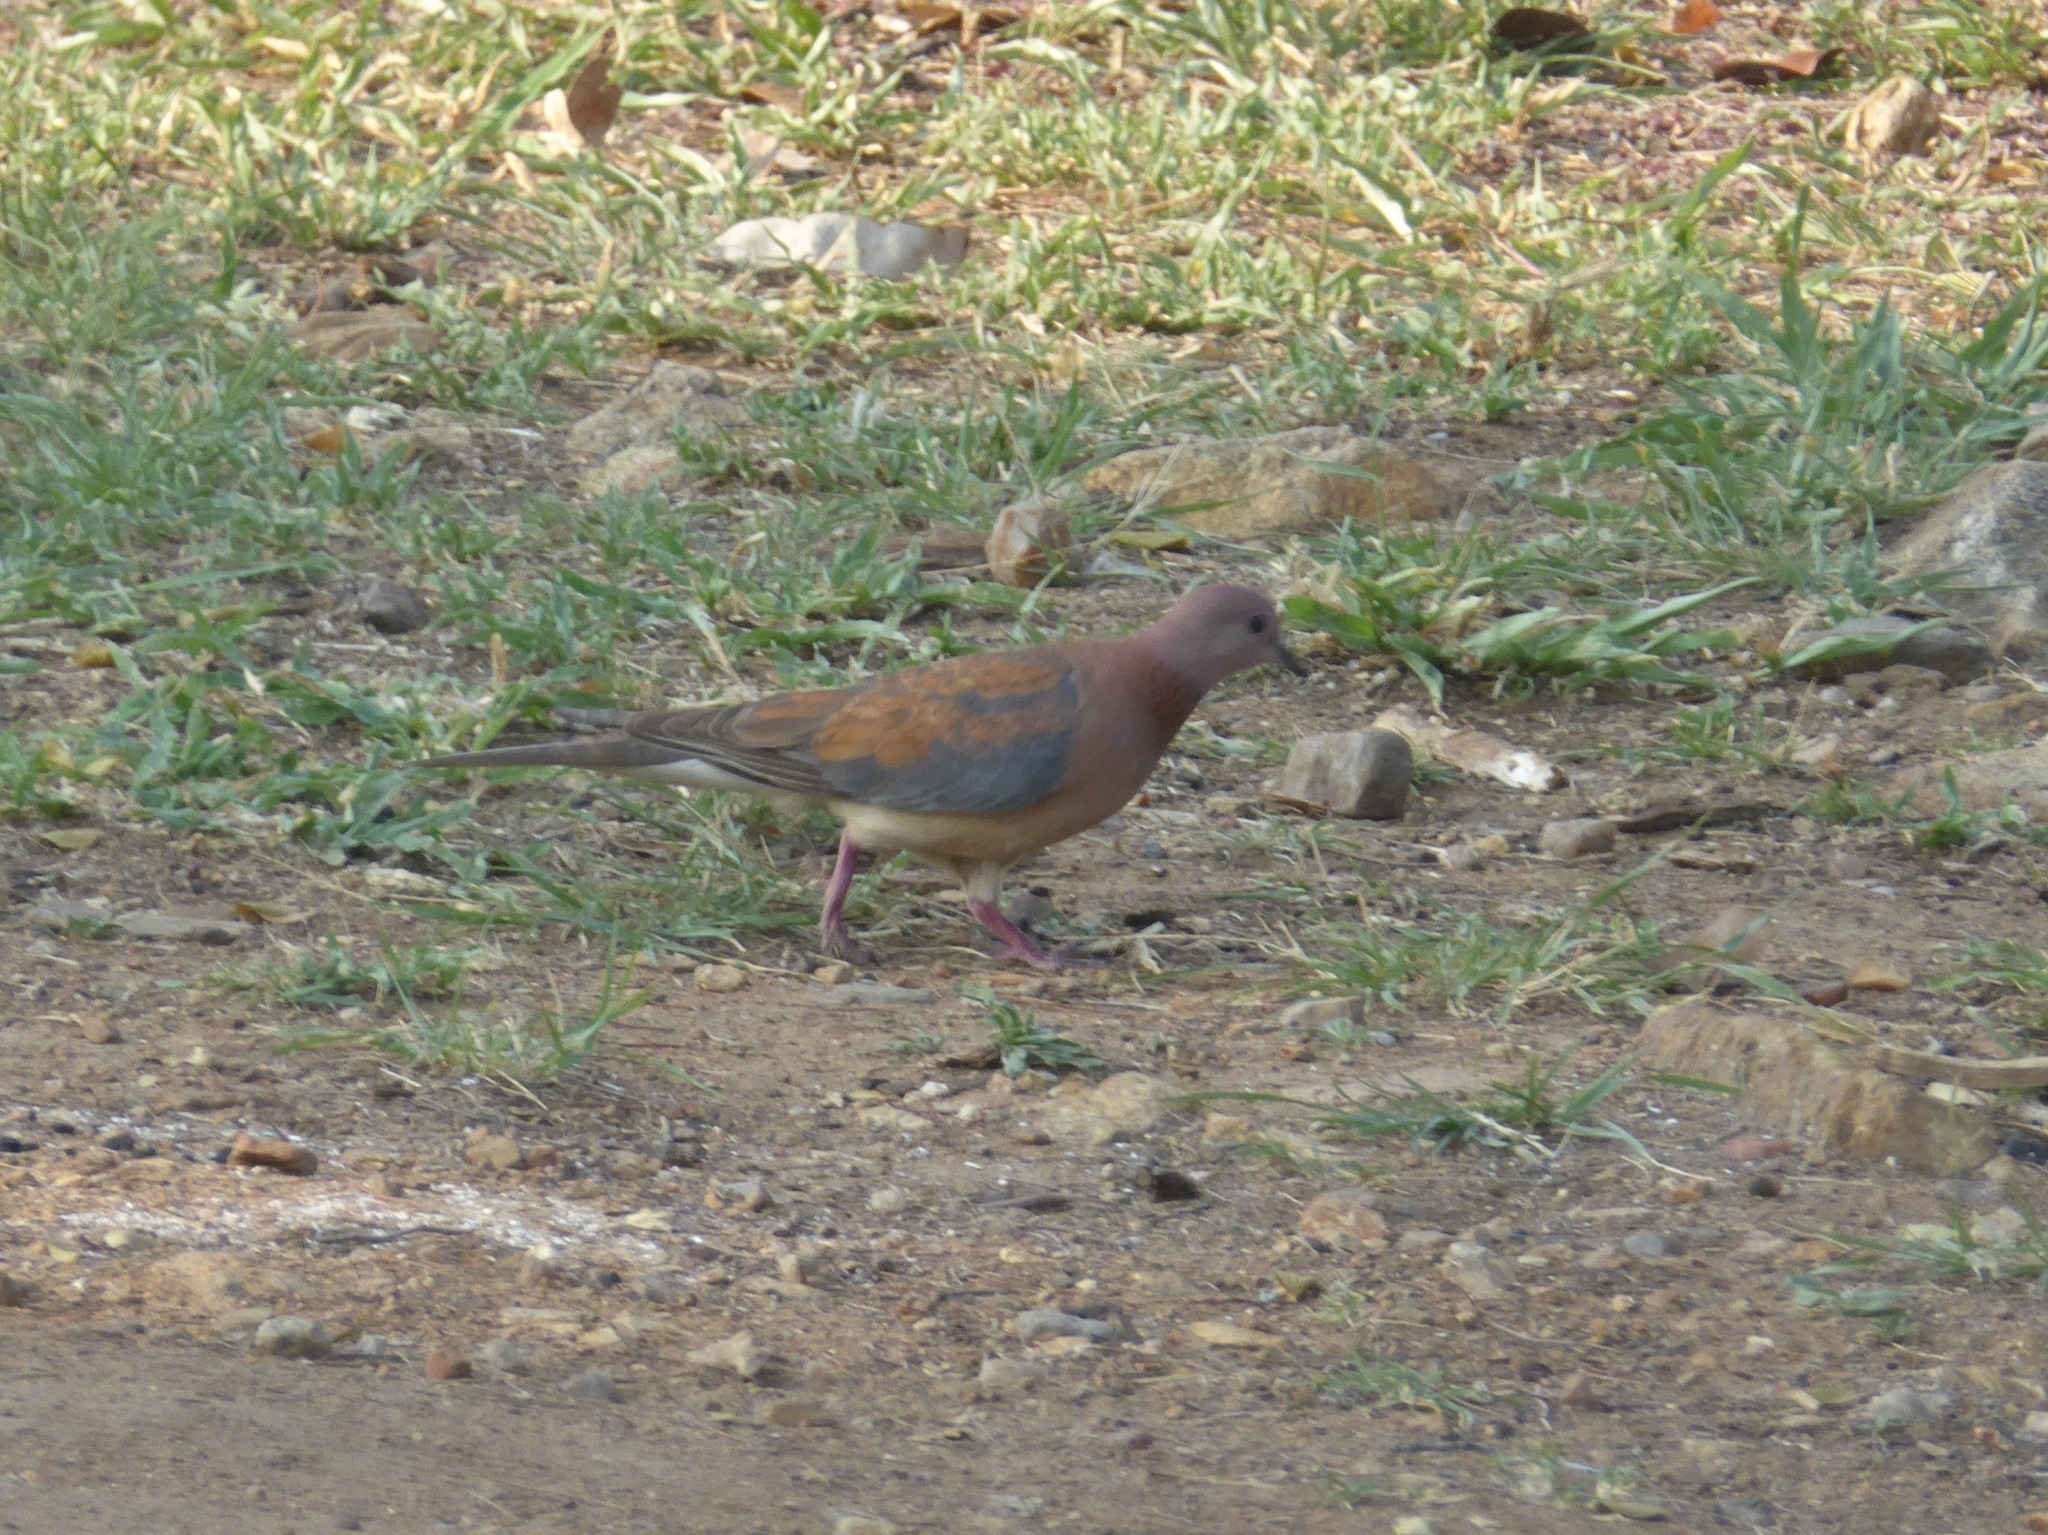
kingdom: Animalia
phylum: Chordata
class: Aves
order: Columbiformes
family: Columbidae
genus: Spilopelia
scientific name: Spilopelia senegalensis
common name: Laughing dove
